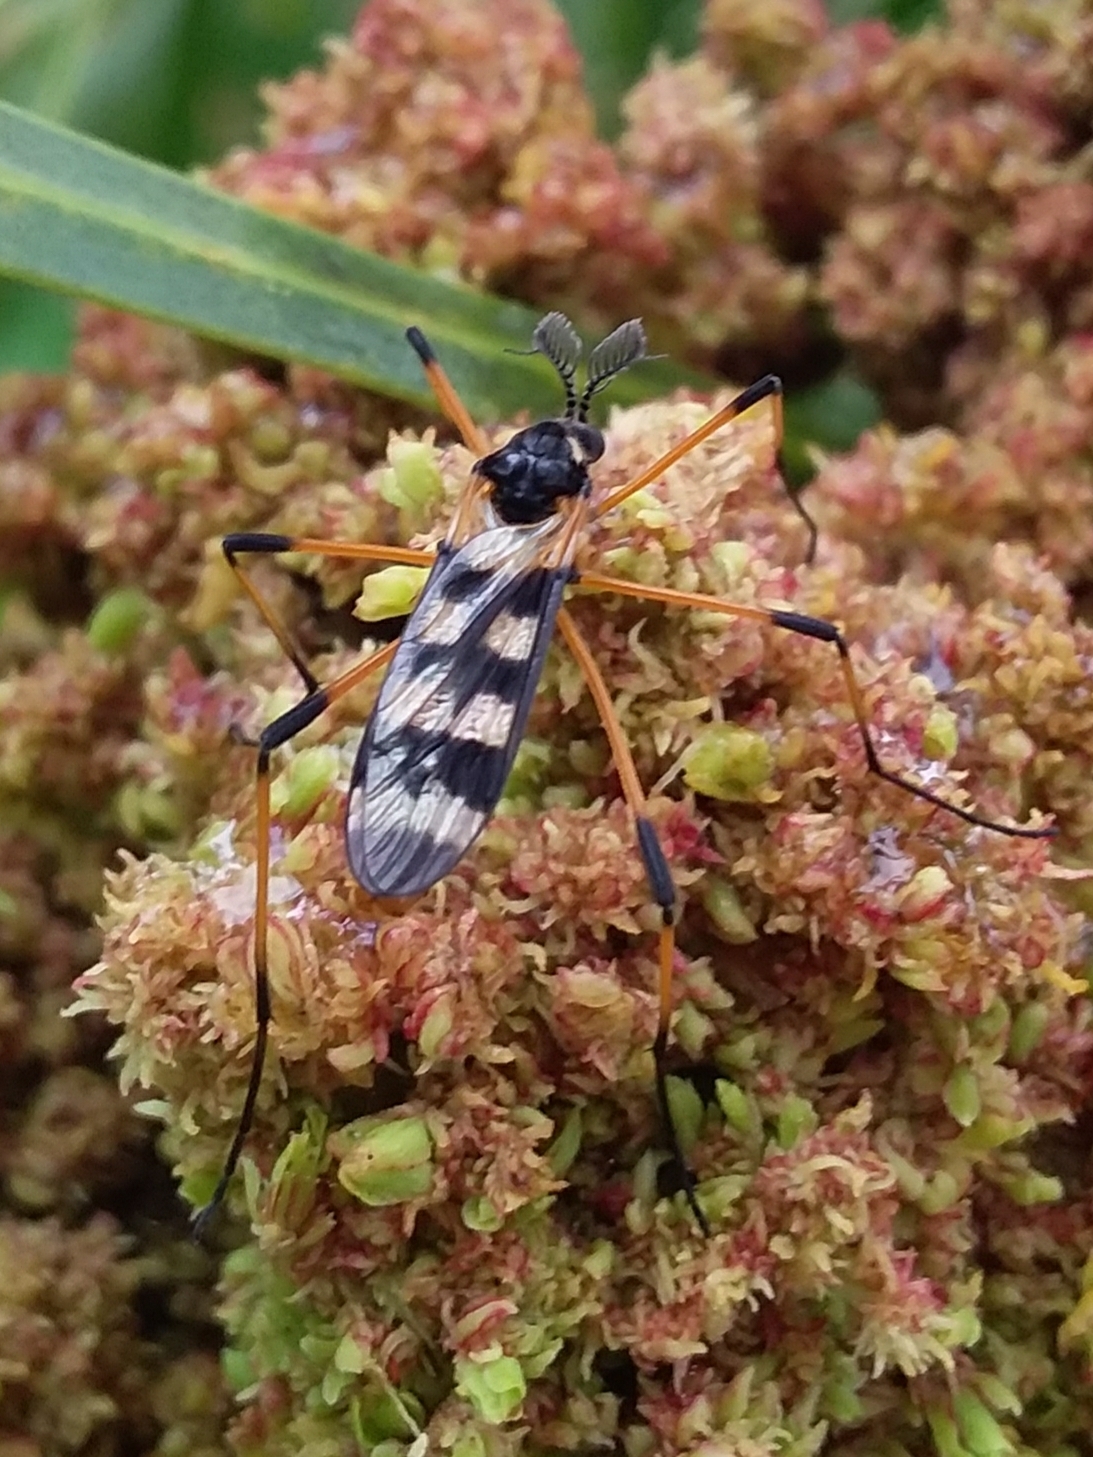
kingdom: Animalia
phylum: Arthropoda
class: Insecta
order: Diptera
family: Limoniidae
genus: Gynoplistia
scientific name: Gynoplistia bella
